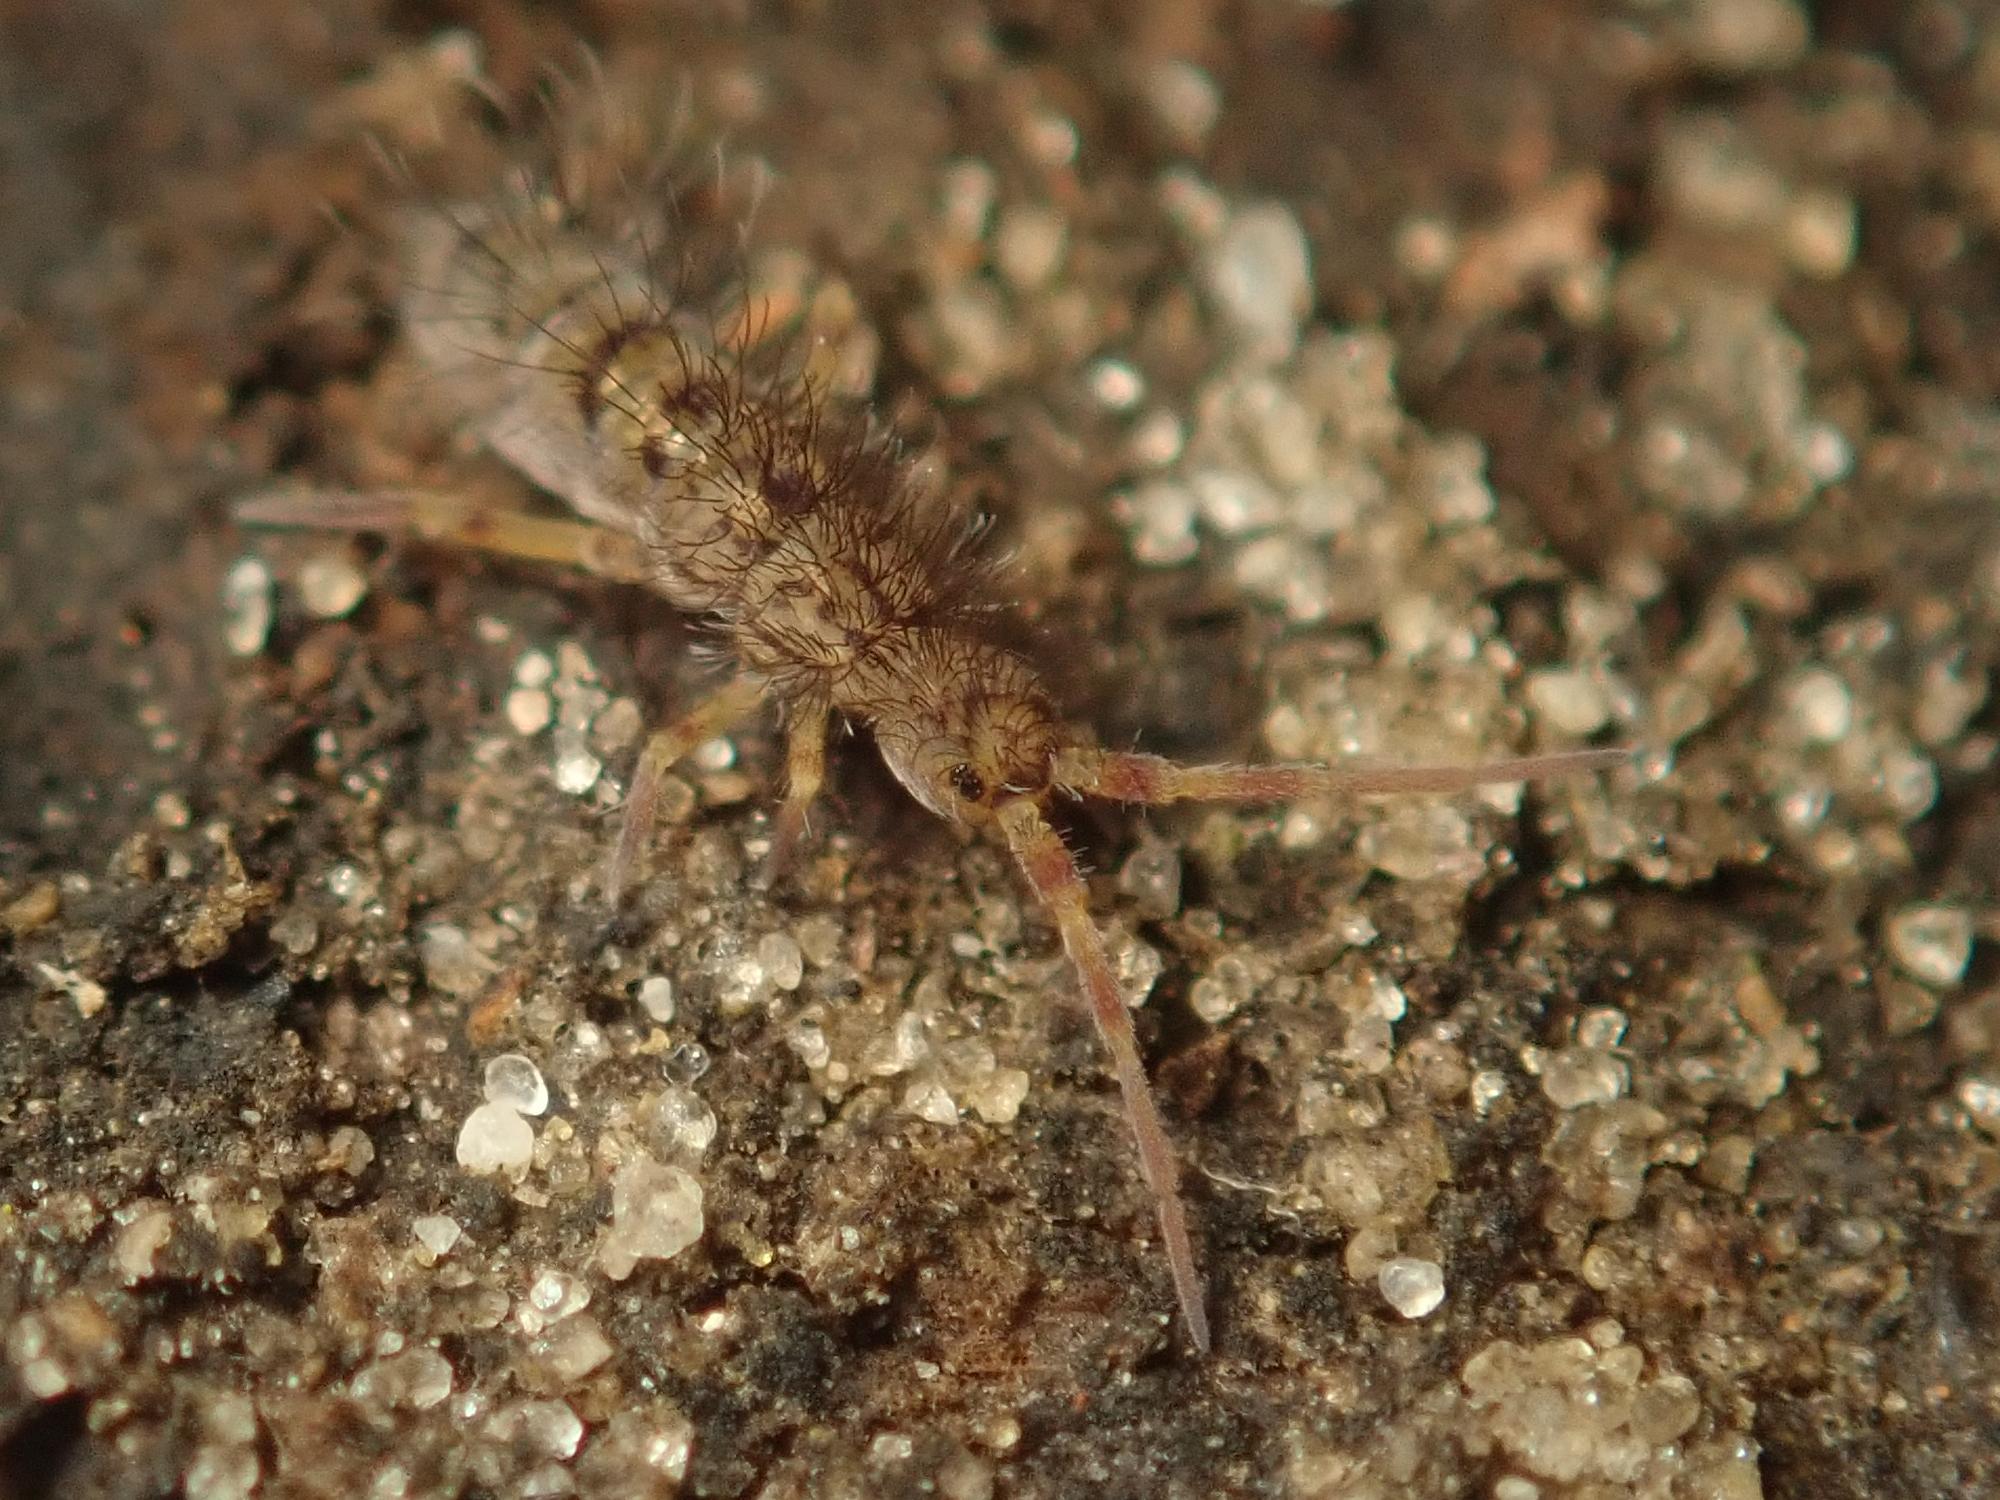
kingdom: Animalia
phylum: Arthropoda
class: Collembola
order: Entomobryomorpha
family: Orchesellidae
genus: Orchesella
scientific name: Orchesella villosa
